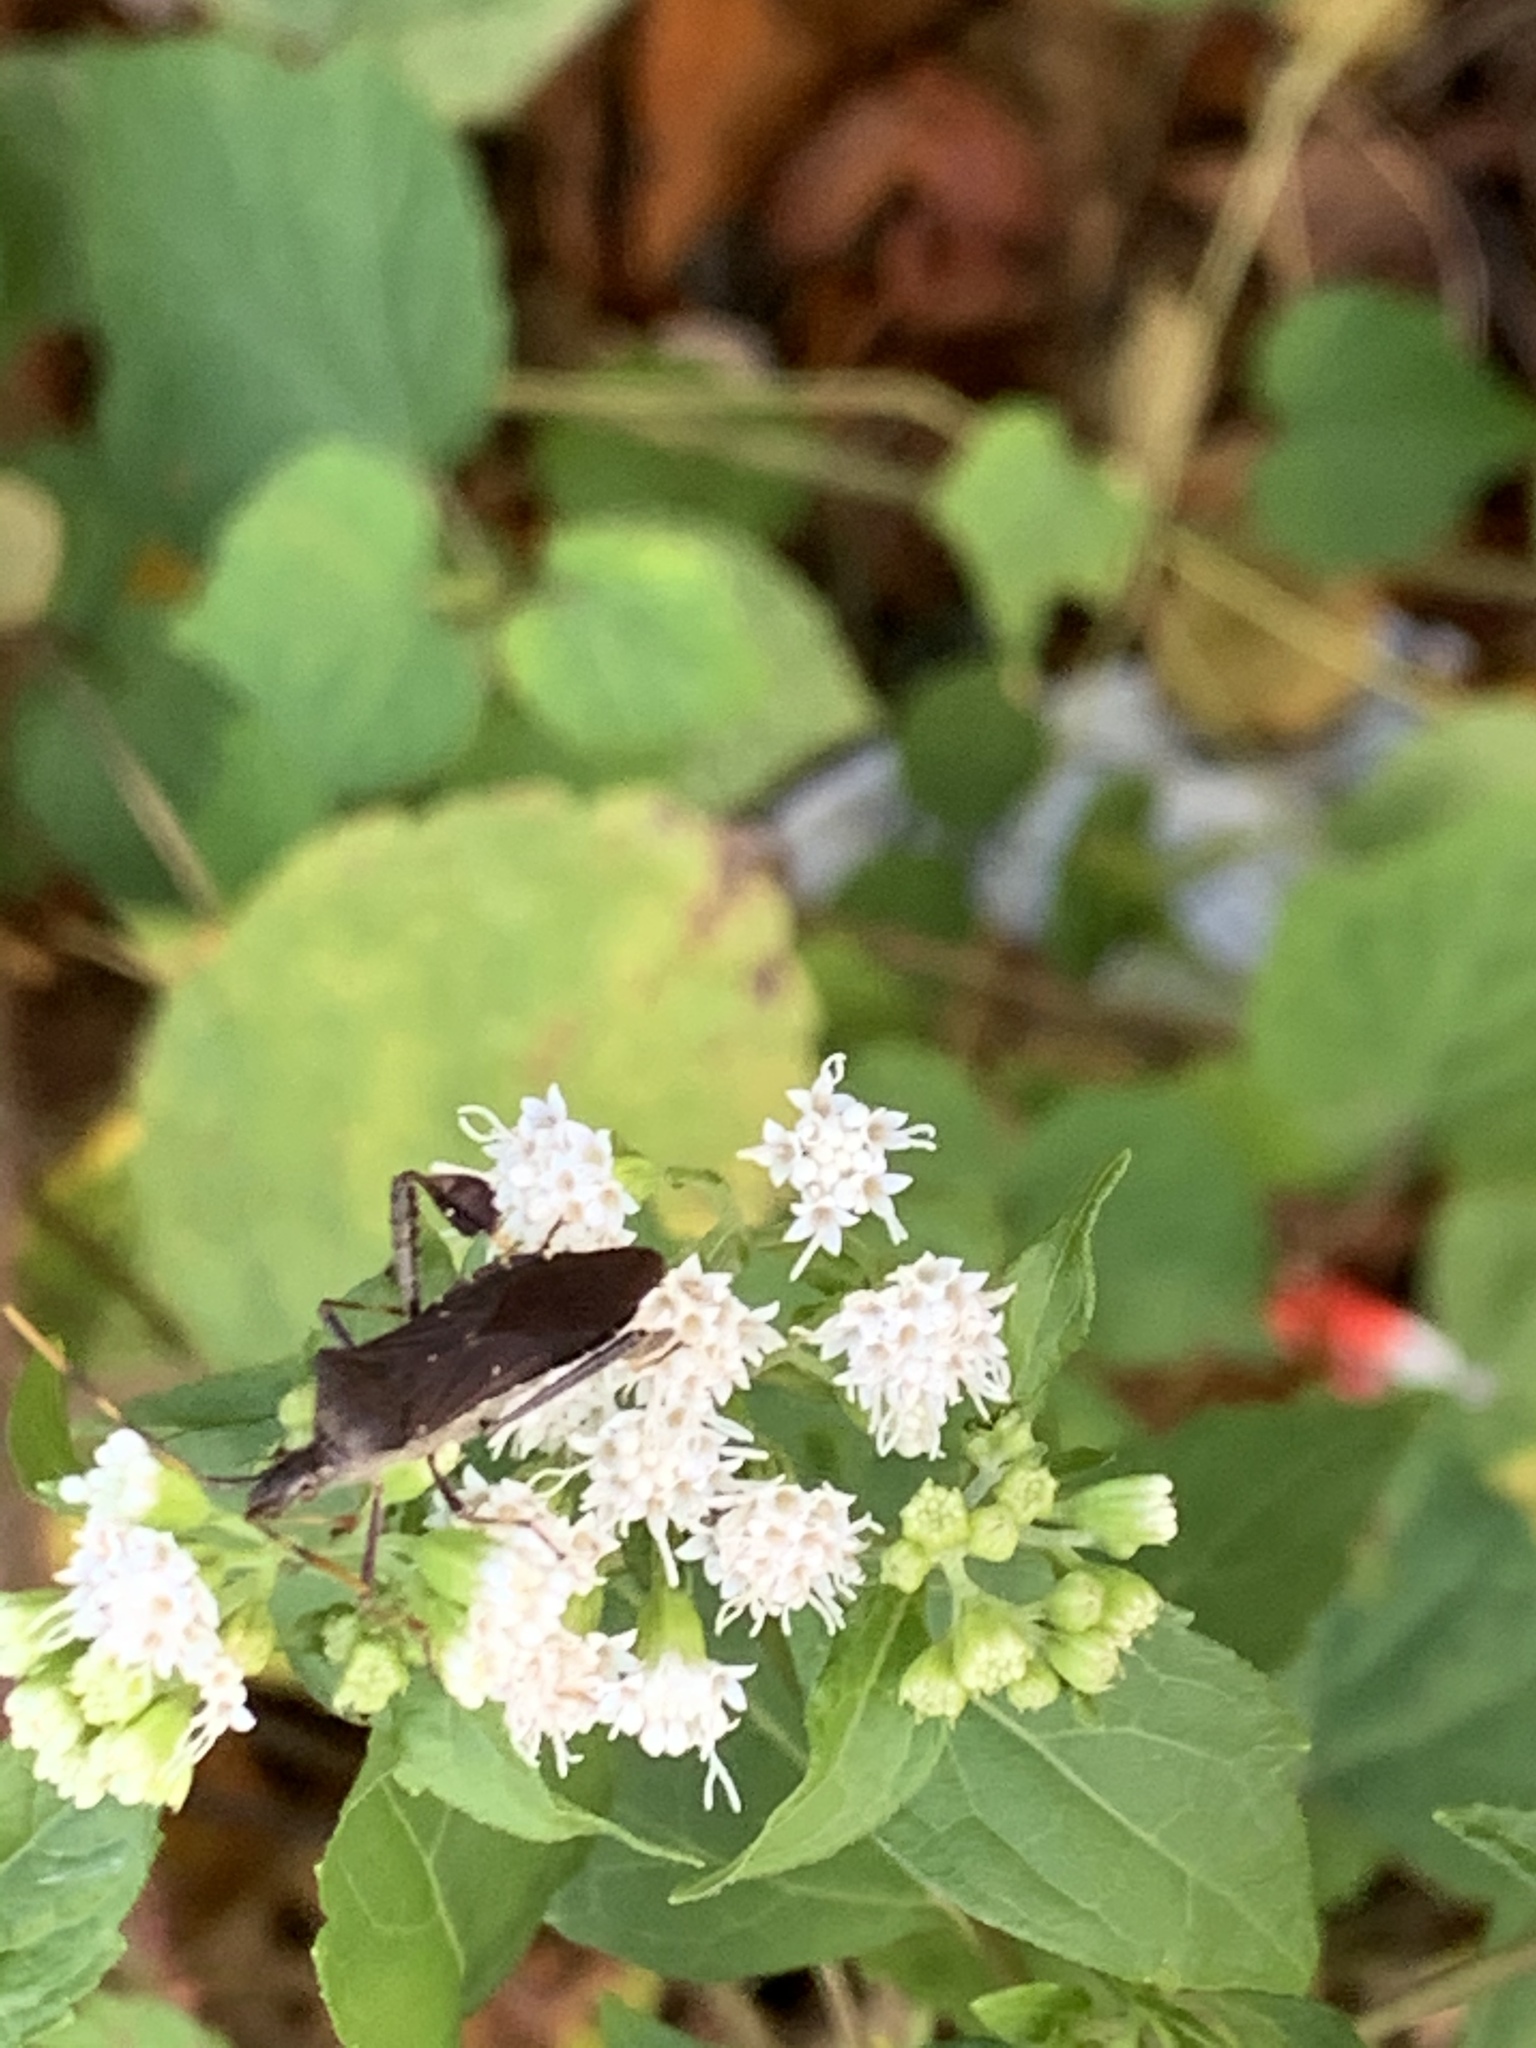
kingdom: Animalia
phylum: Arthropoda
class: Insecta
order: Hemiptera
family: Coreidae
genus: Leptoglossus
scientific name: Leptoglossus oppositus
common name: Northern leaf-footed bug
